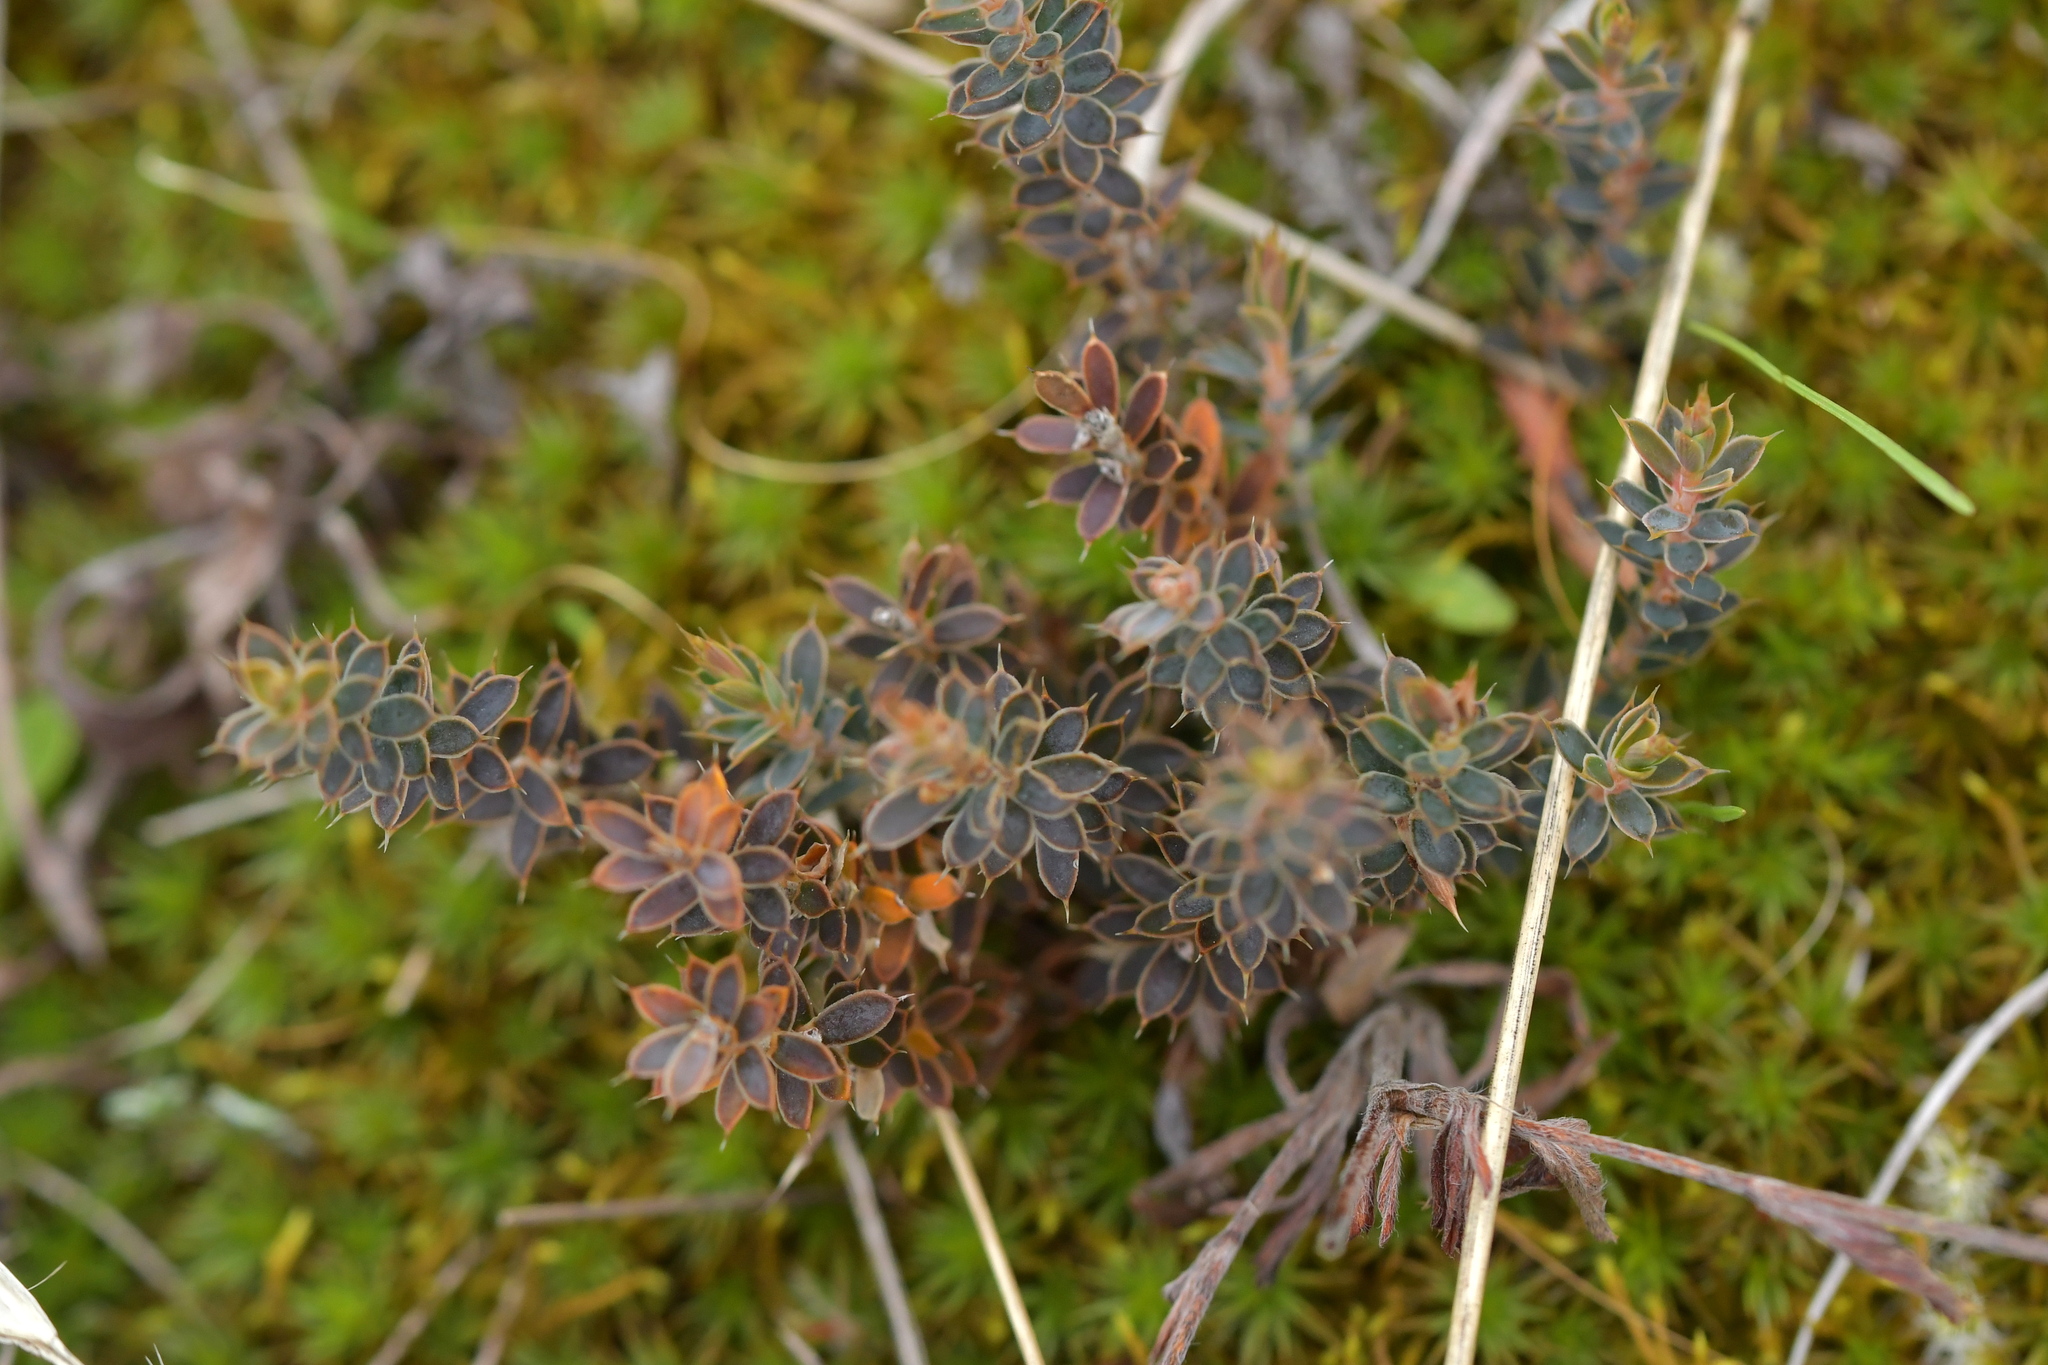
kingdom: Plantae
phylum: Tracheophyta
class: Magnoliopsida
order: Ericales
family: Ericaceae
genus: Styphelia
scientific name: Styphelia nesophila
